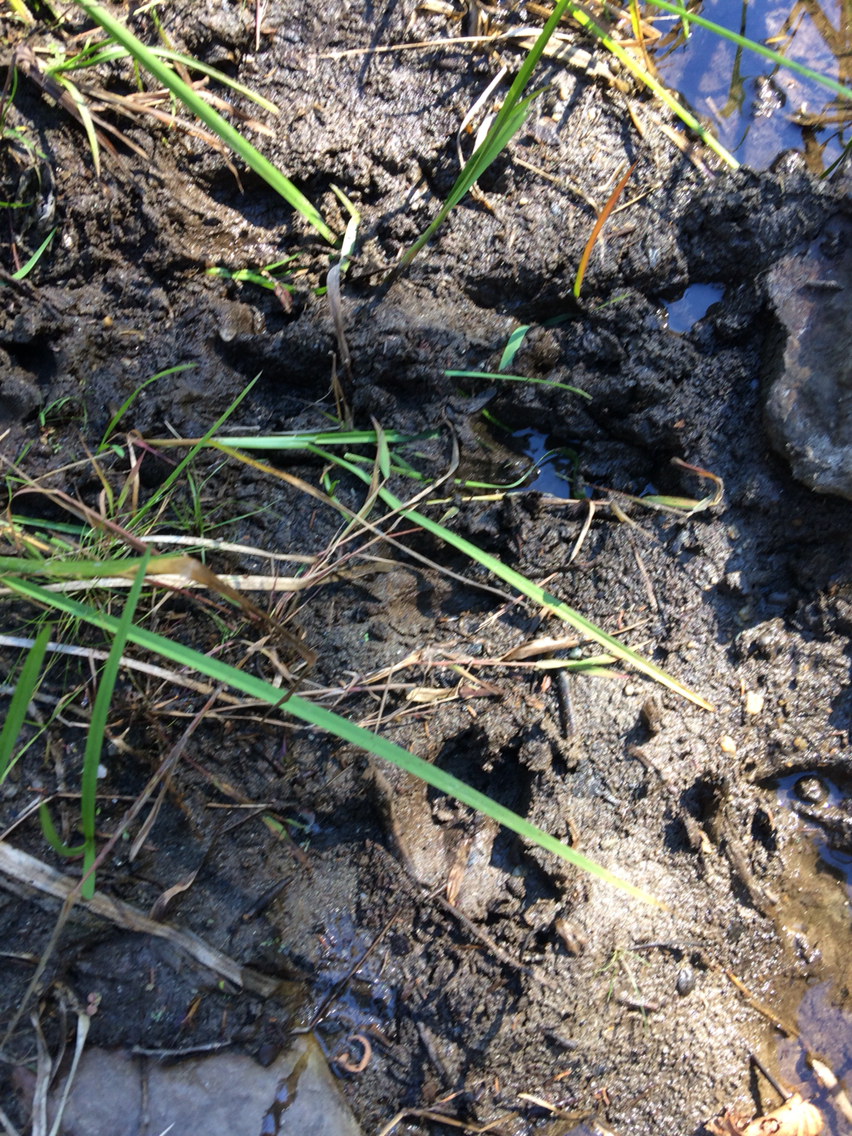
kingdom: Animalia
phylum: Chordata
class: Mammalia
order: Artiodactyla
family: Cervidae
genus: Odocoileus
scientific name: Odocoileus virginianus
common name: White-tailed deer
